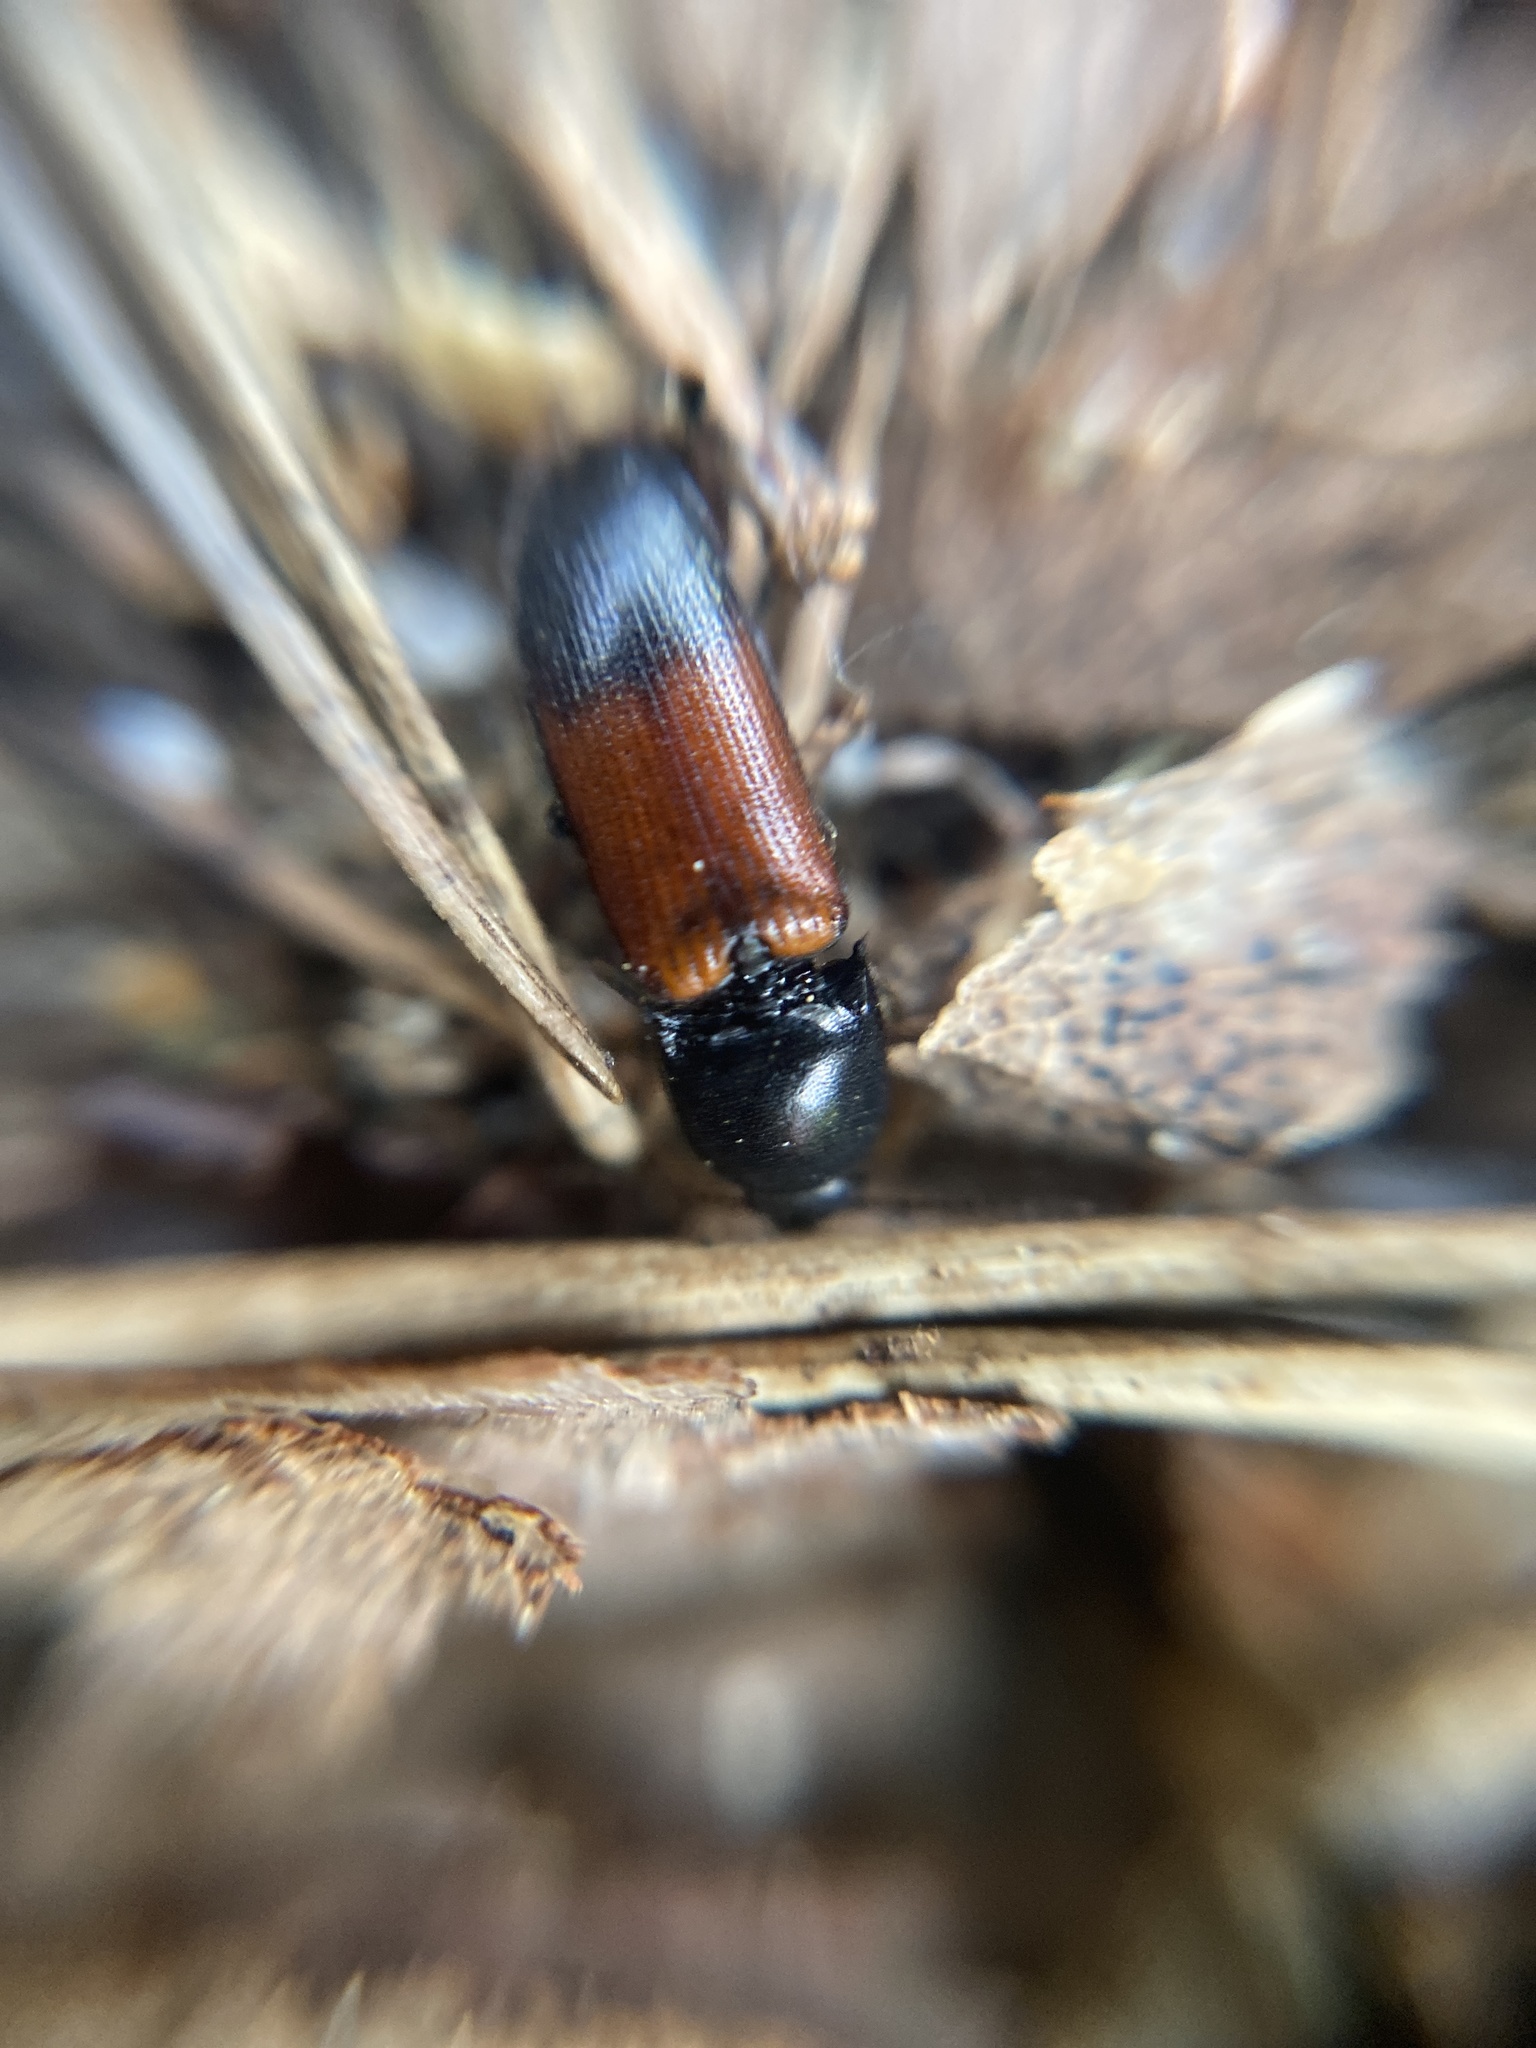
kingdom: Animalia
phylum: Arthropoda
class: Insecta
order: Coleoptera
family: Elateridae
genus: Ampedus
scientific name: Ampedus balteatus
